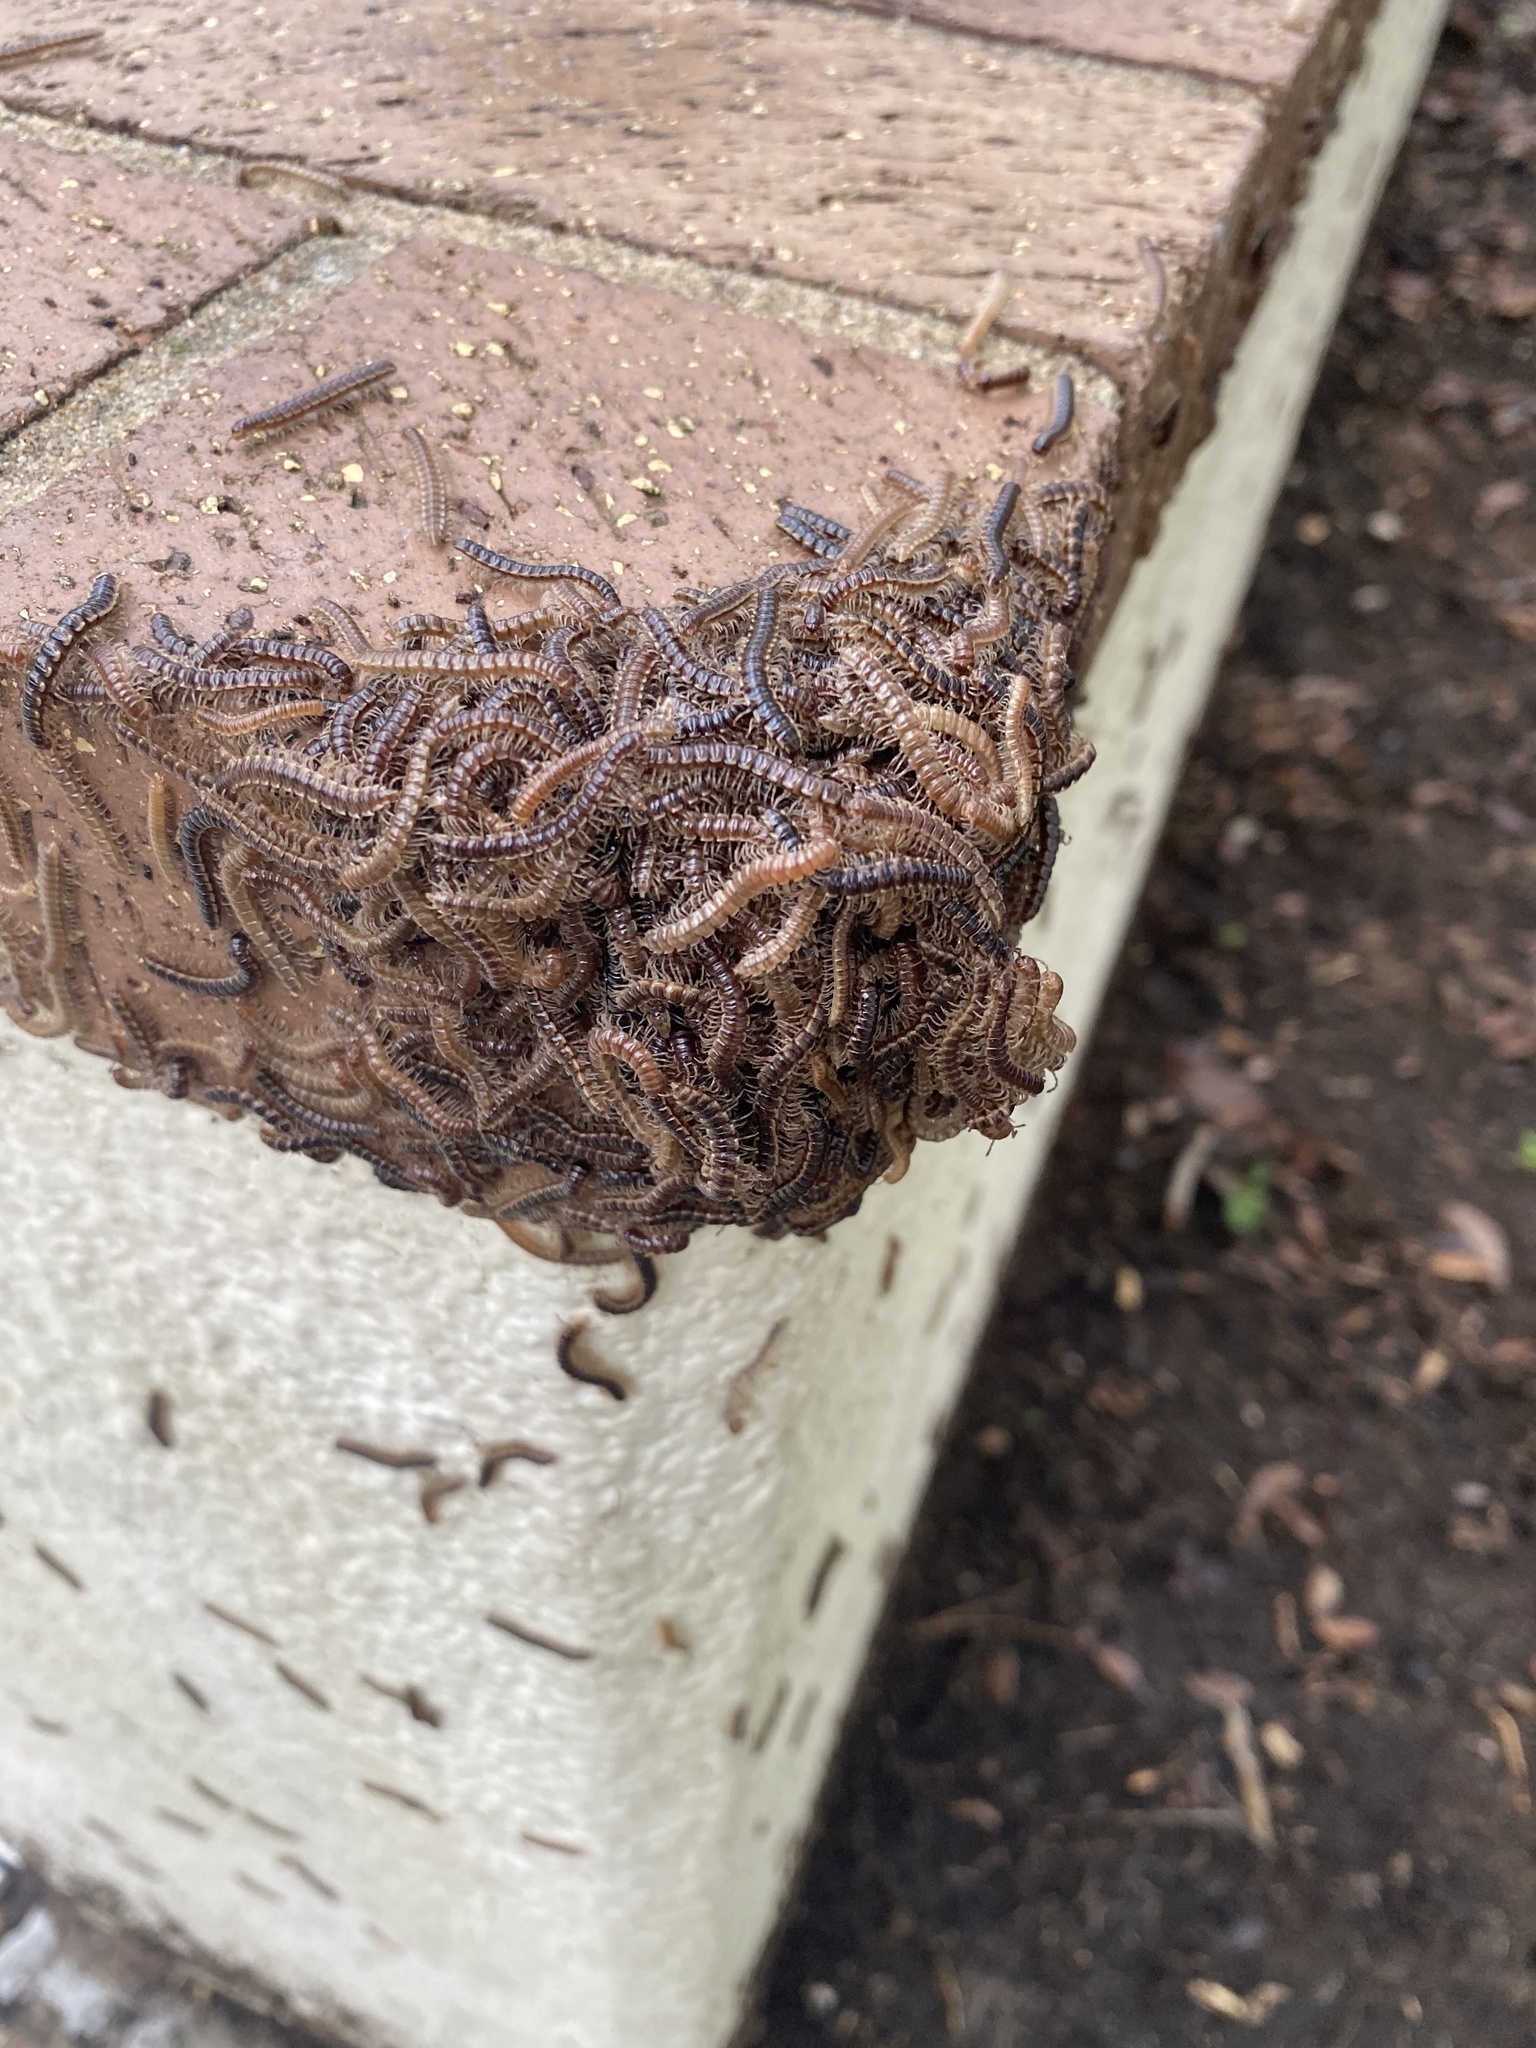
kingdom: Animalia
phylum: Arthropoda
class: Diplopoda
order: Polydesmida
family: Paradoxosomatidae
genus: Oxidus
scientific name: Oxidus gracilis
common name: Greenhouse millipede
